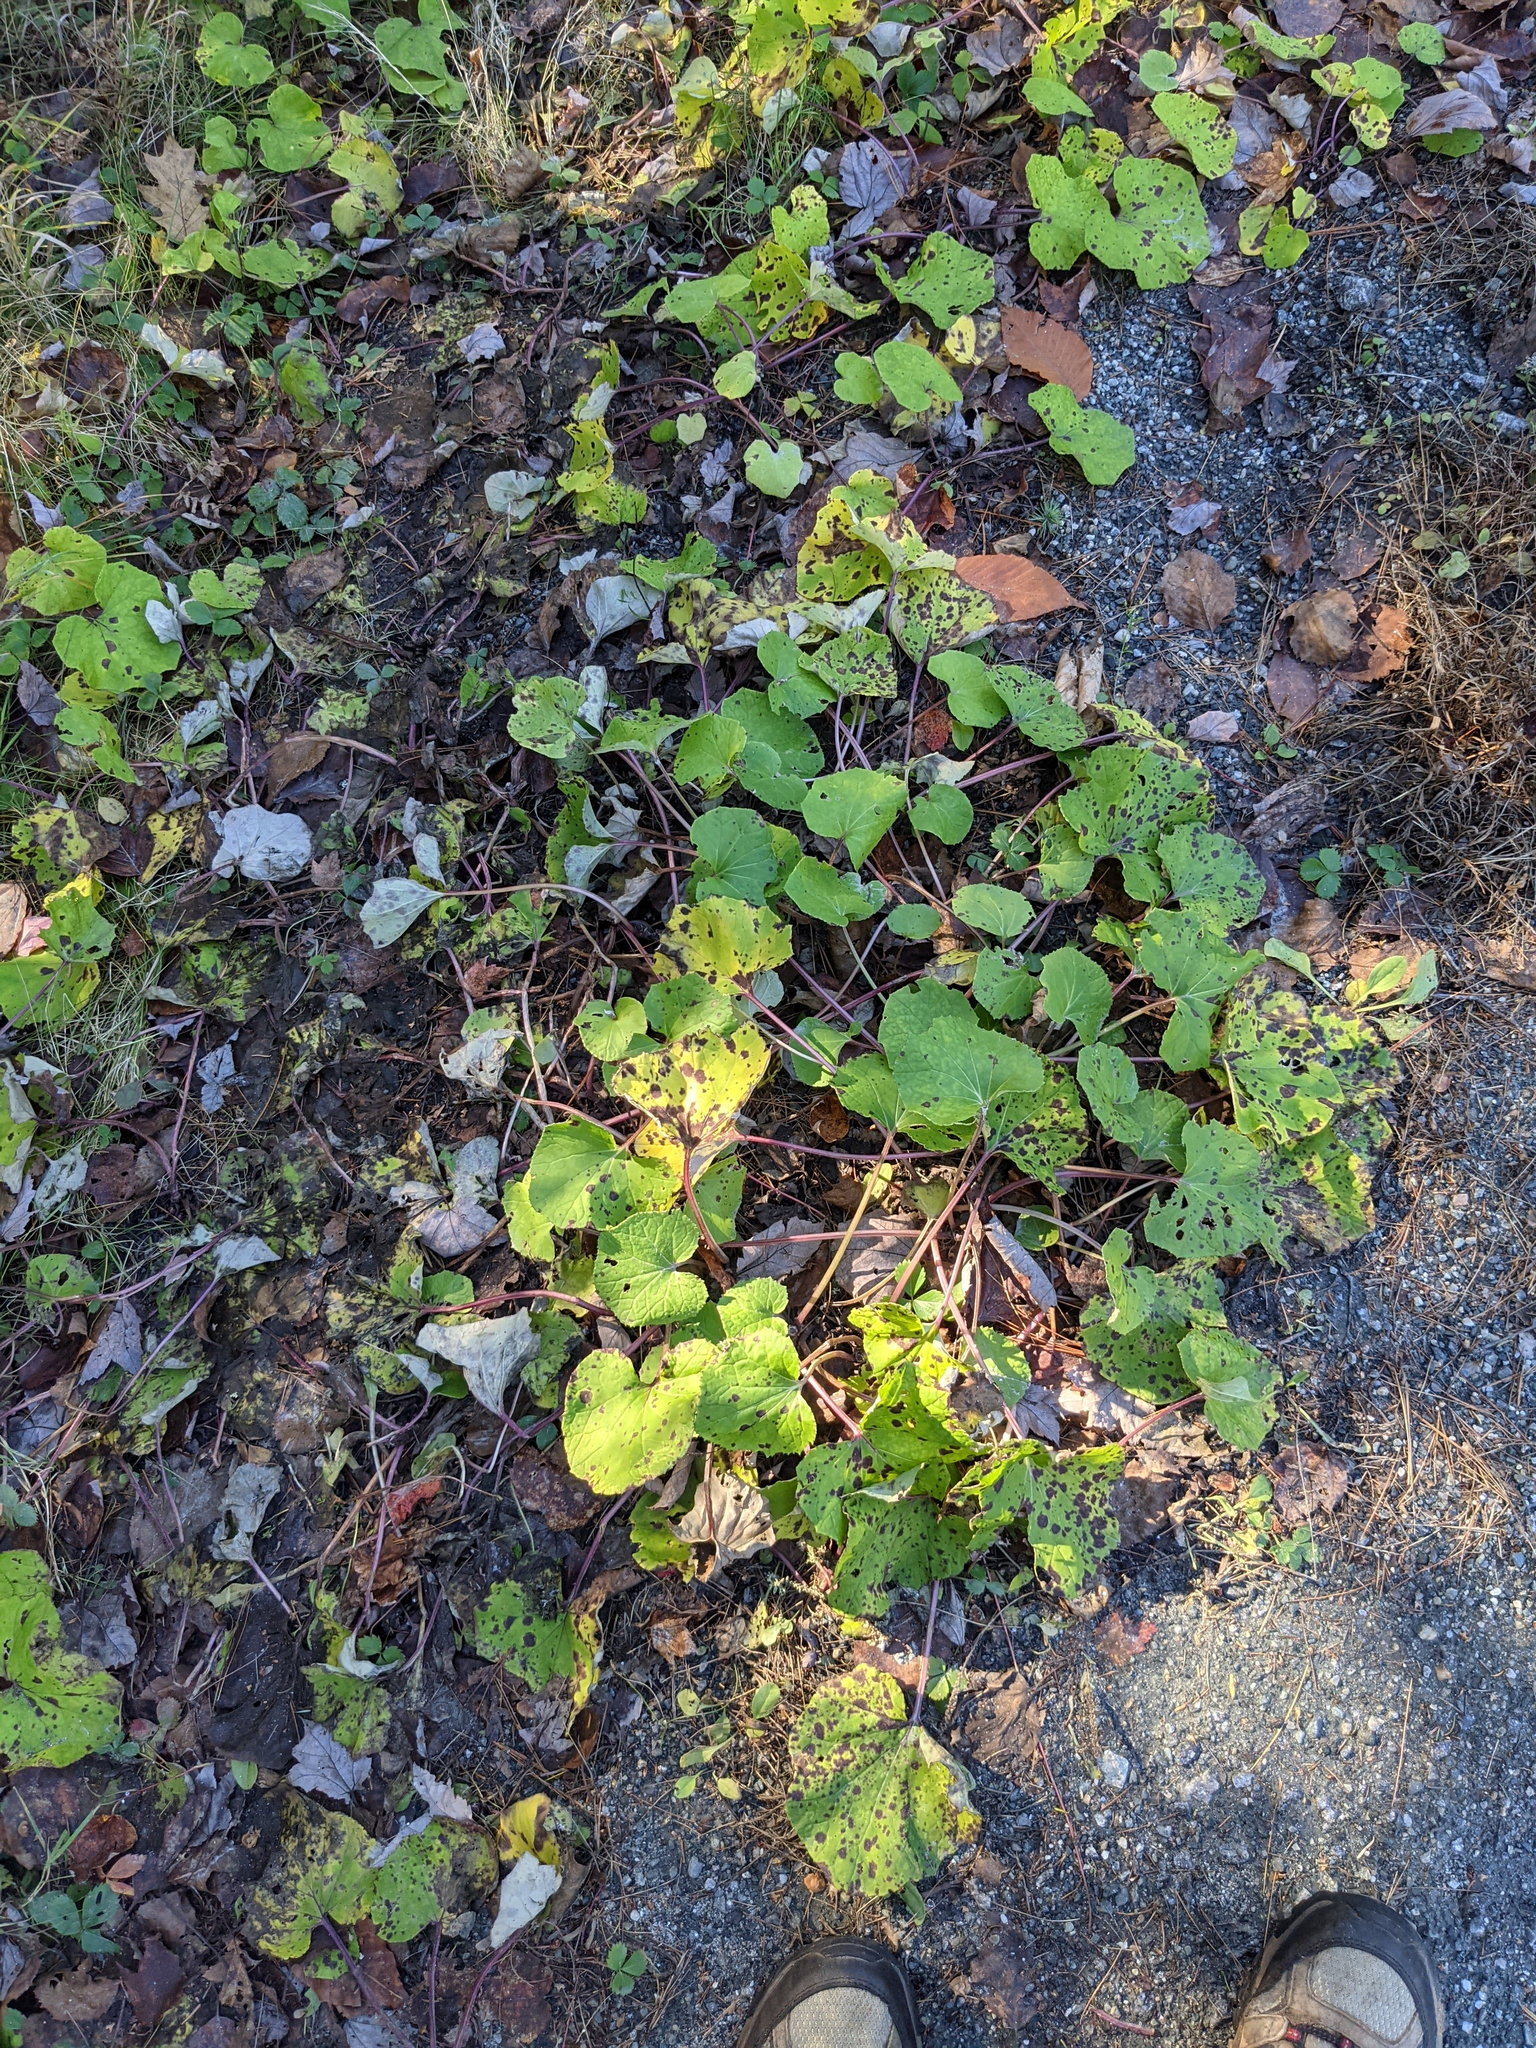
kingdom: Plantae
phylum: Tracheophyta
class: Magnoliopsida
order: Asterales
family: Asteraceae
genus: Tussilago
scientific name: Tussilago farfara
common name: Coltsfoot
